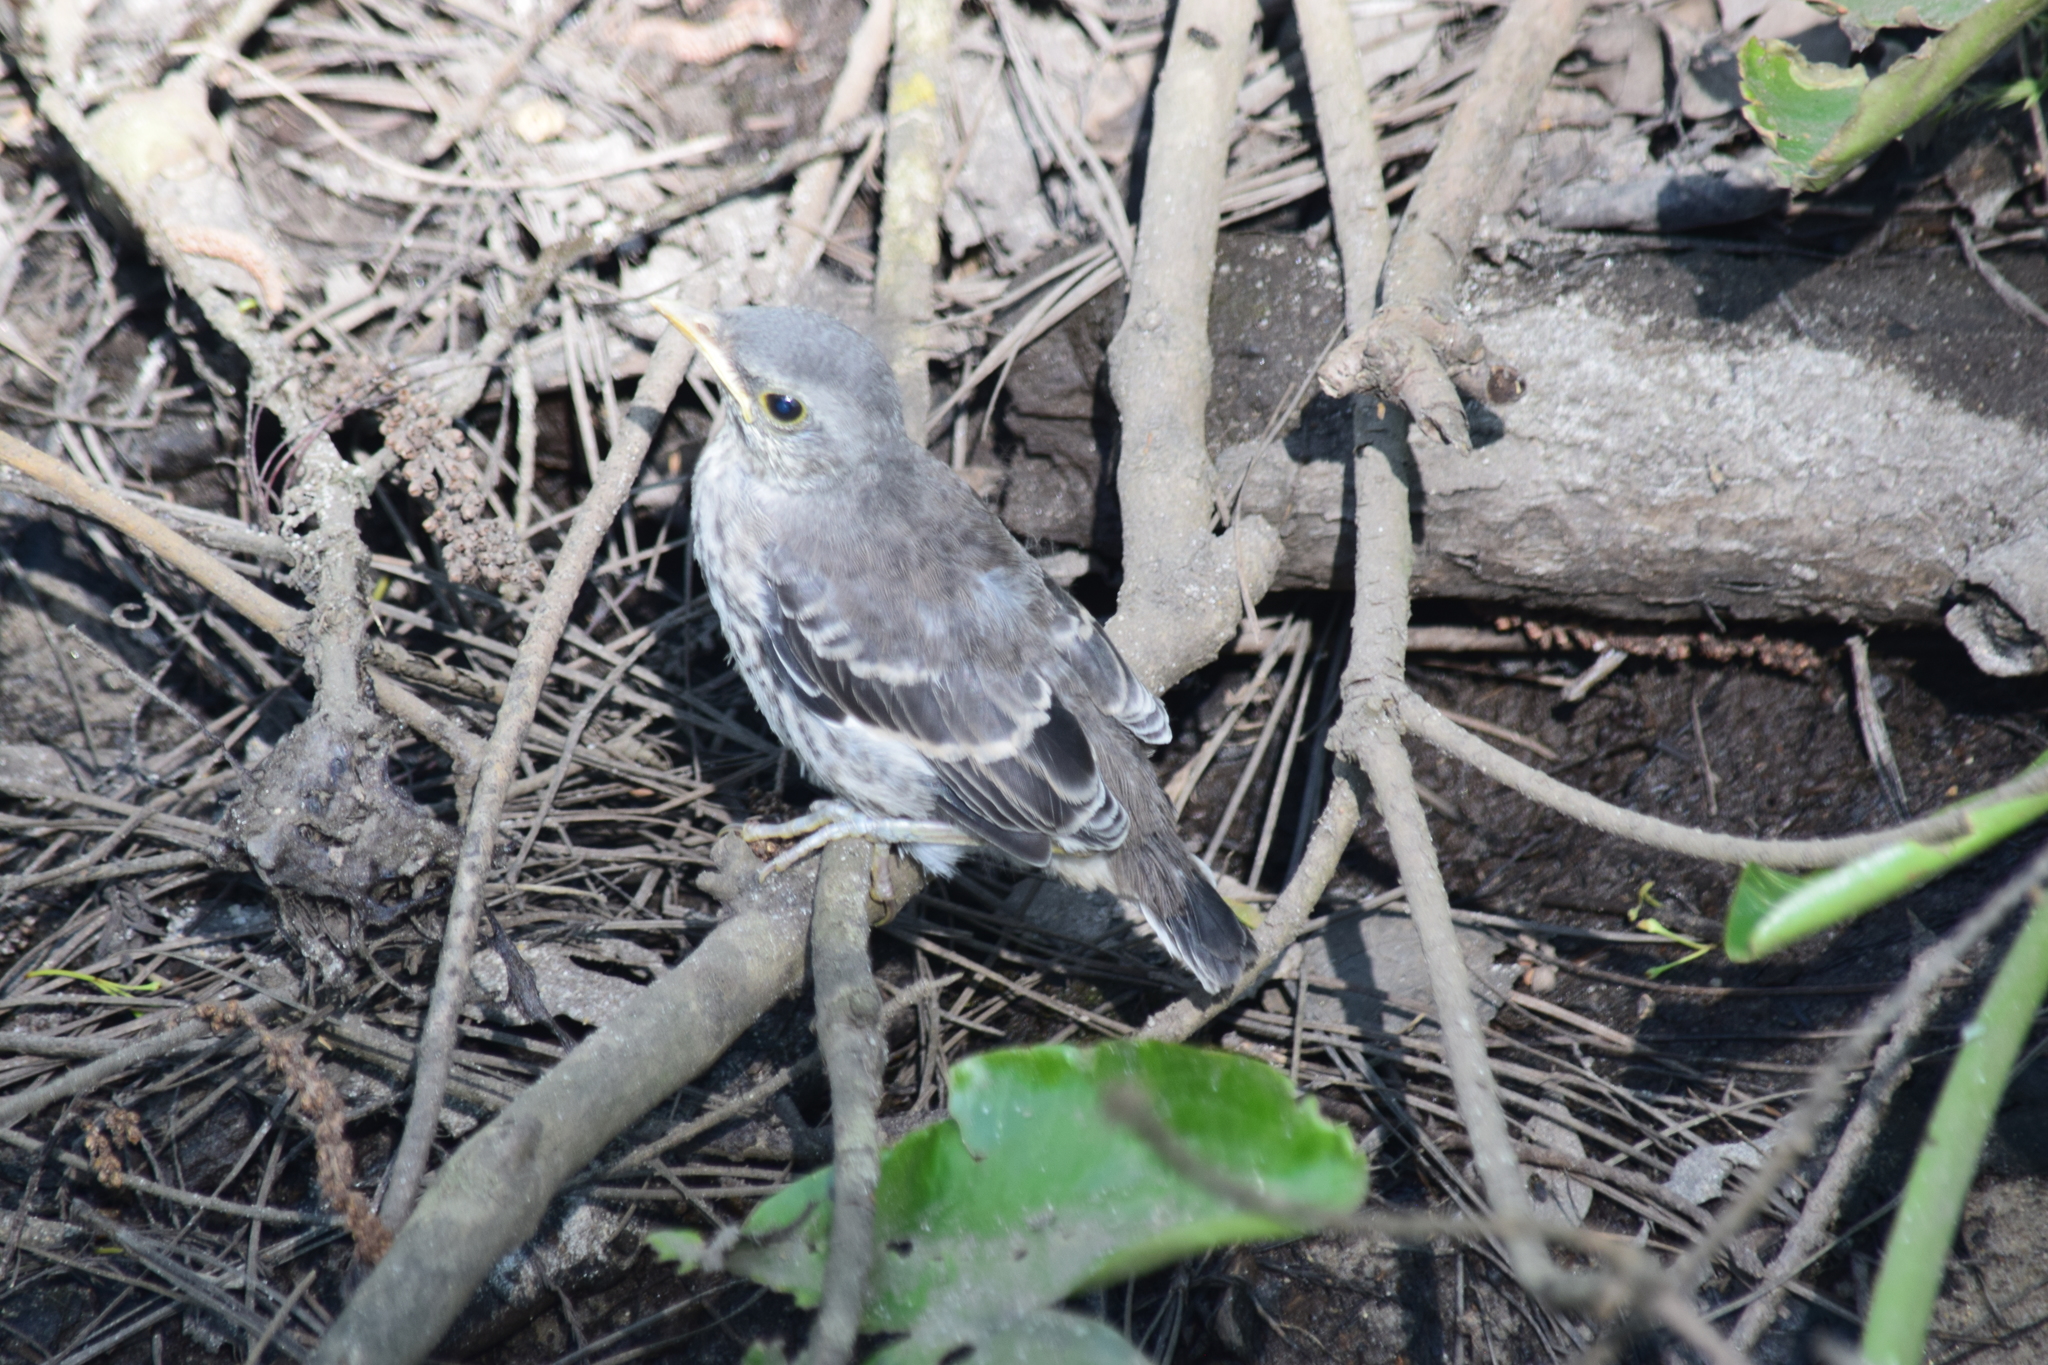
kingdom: Animalia
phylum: Chordata
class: Aves
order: Passeriformes
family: Mimidae
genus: Mimus
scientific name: Mimus polyglottos
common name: Northern mockingbird
